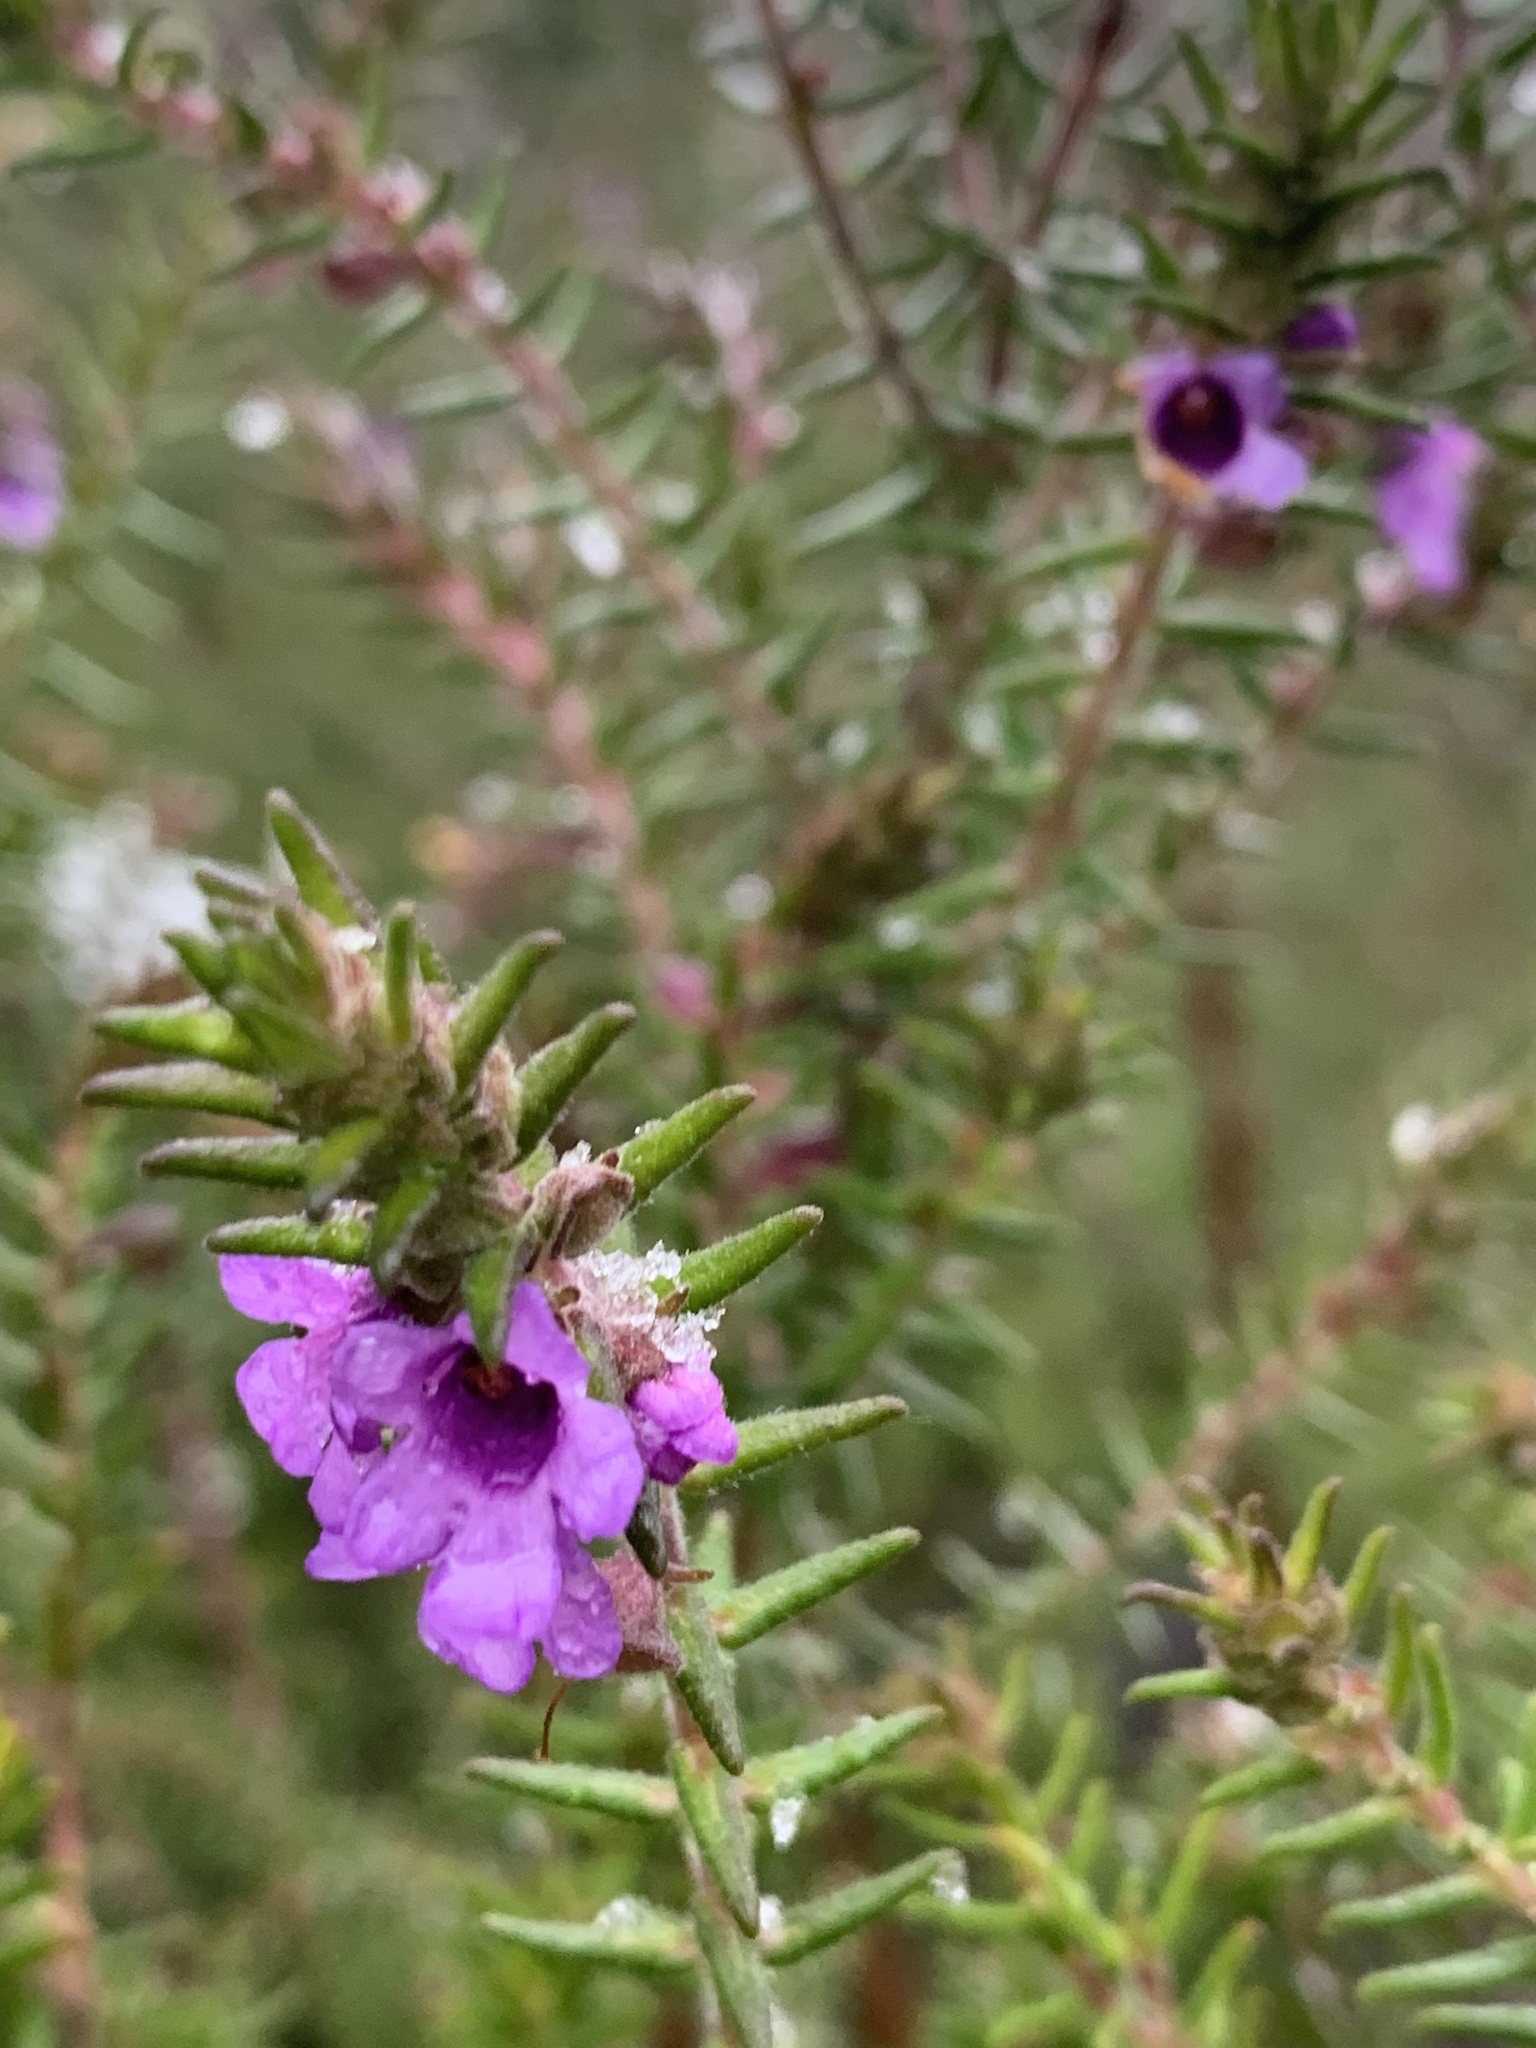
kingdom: Plantae
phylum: Tracheophyta
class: Magnoliopsida
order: Lamiales
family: Lamiaceae
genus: Prostanthera
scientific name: Prostanthera decussata
